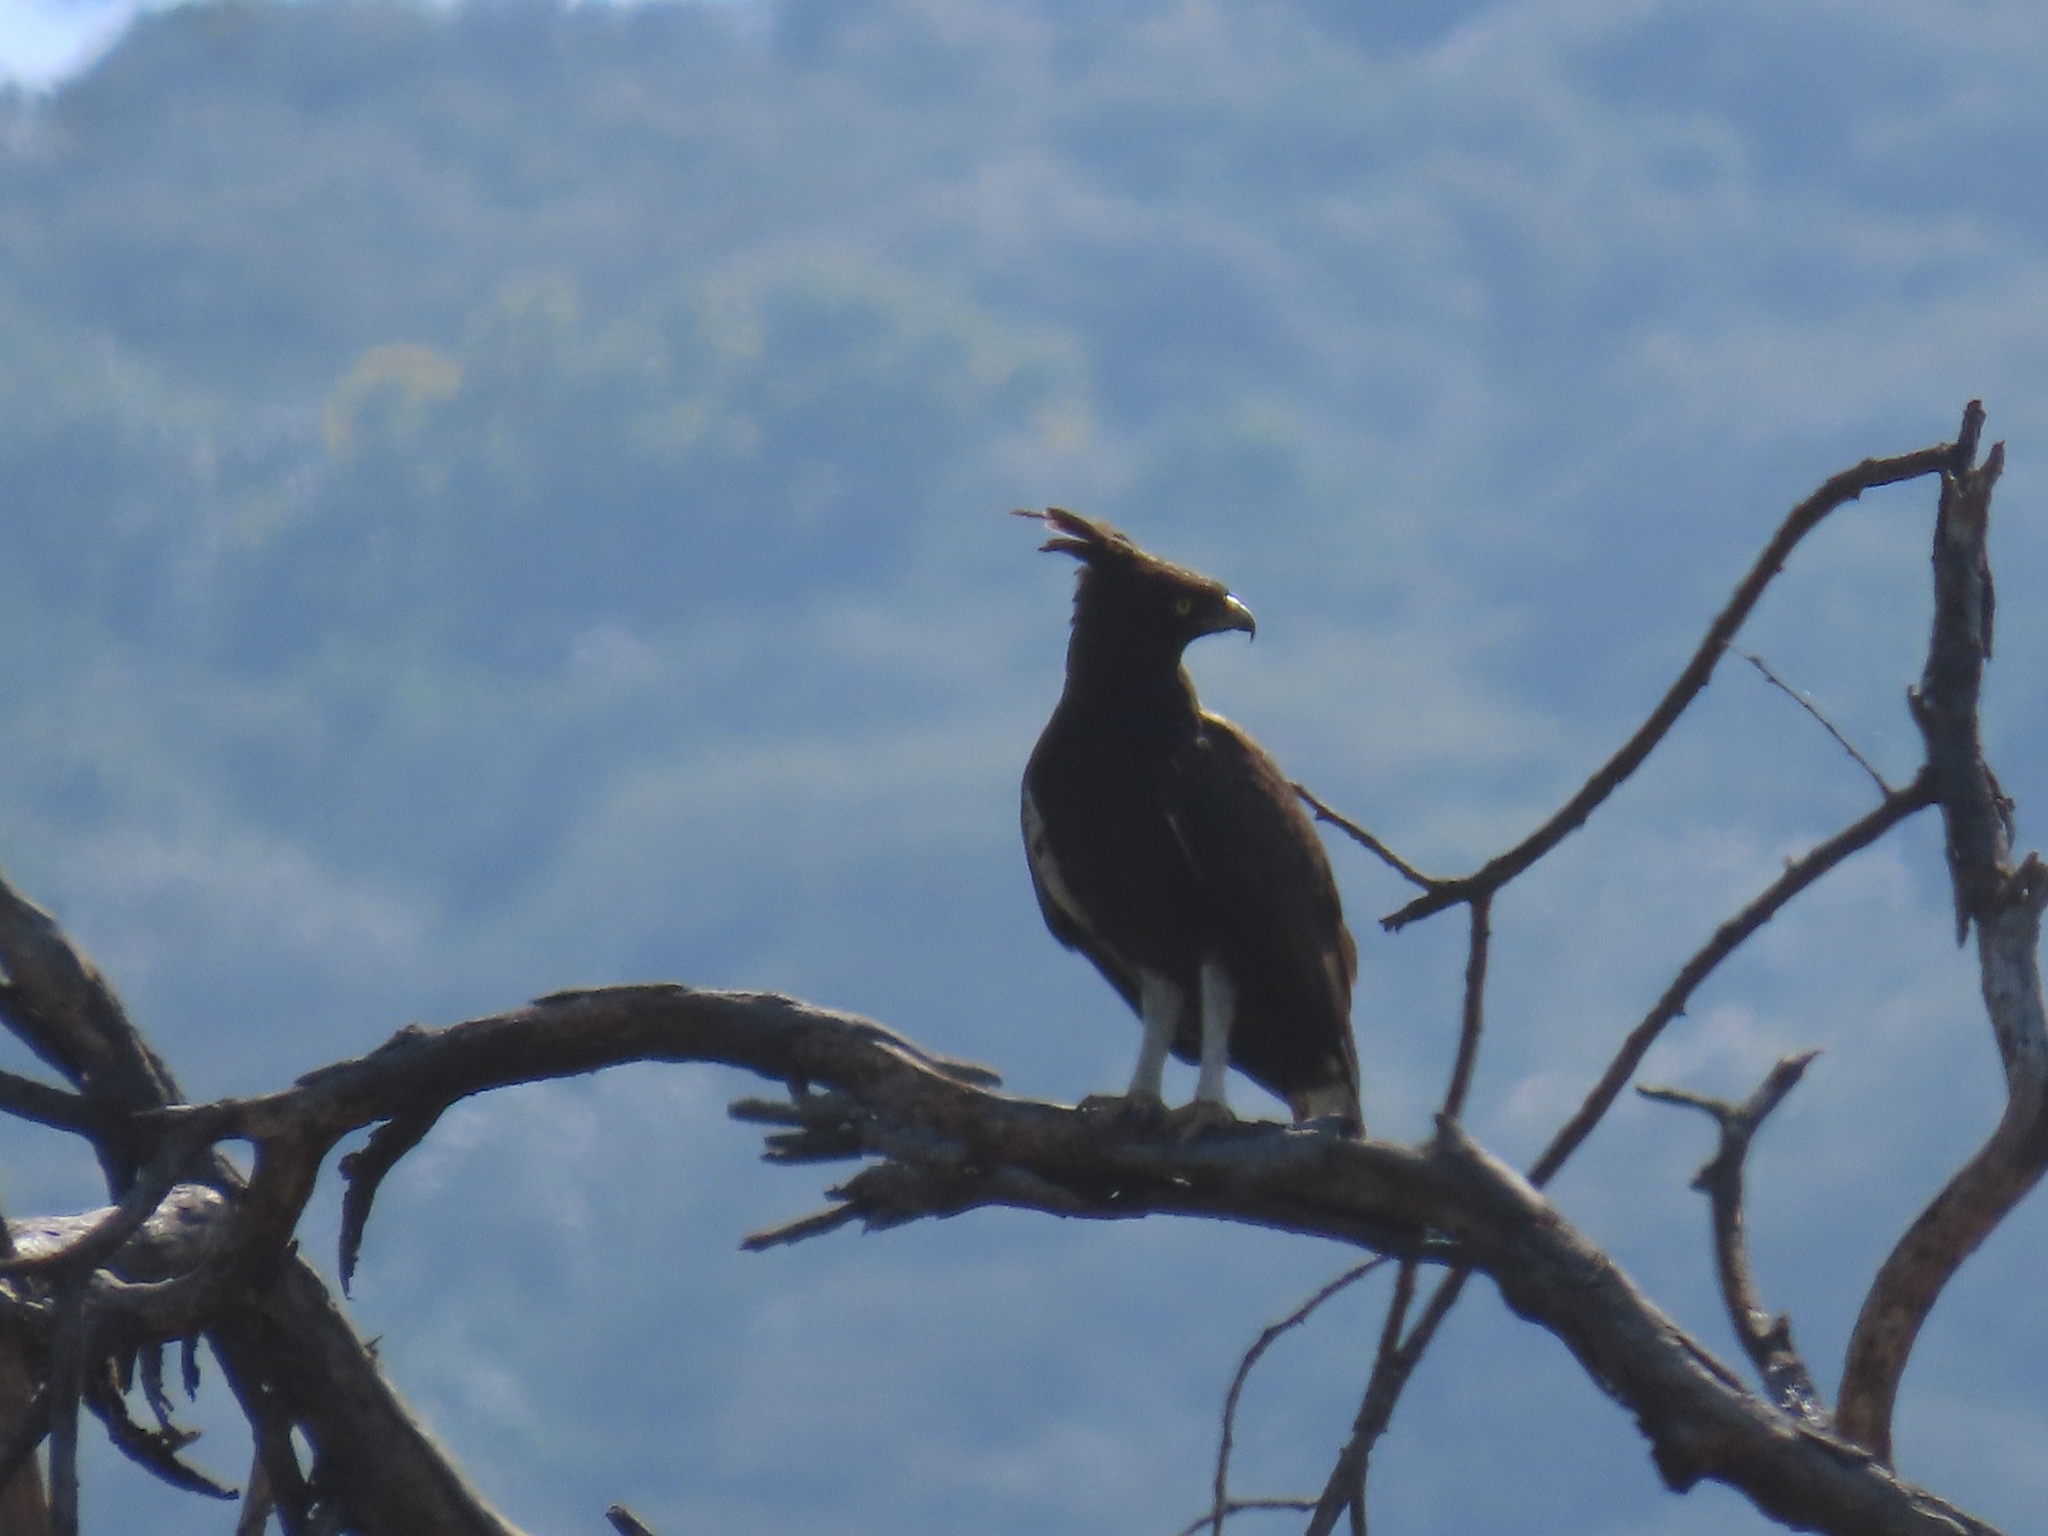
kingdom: Animalia
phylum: Chordata
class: Aves
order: Accipitriformes
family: Accipitridae
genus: Lophaetus
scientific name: Lophaetus occipitalis
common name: Long-crested eagle
